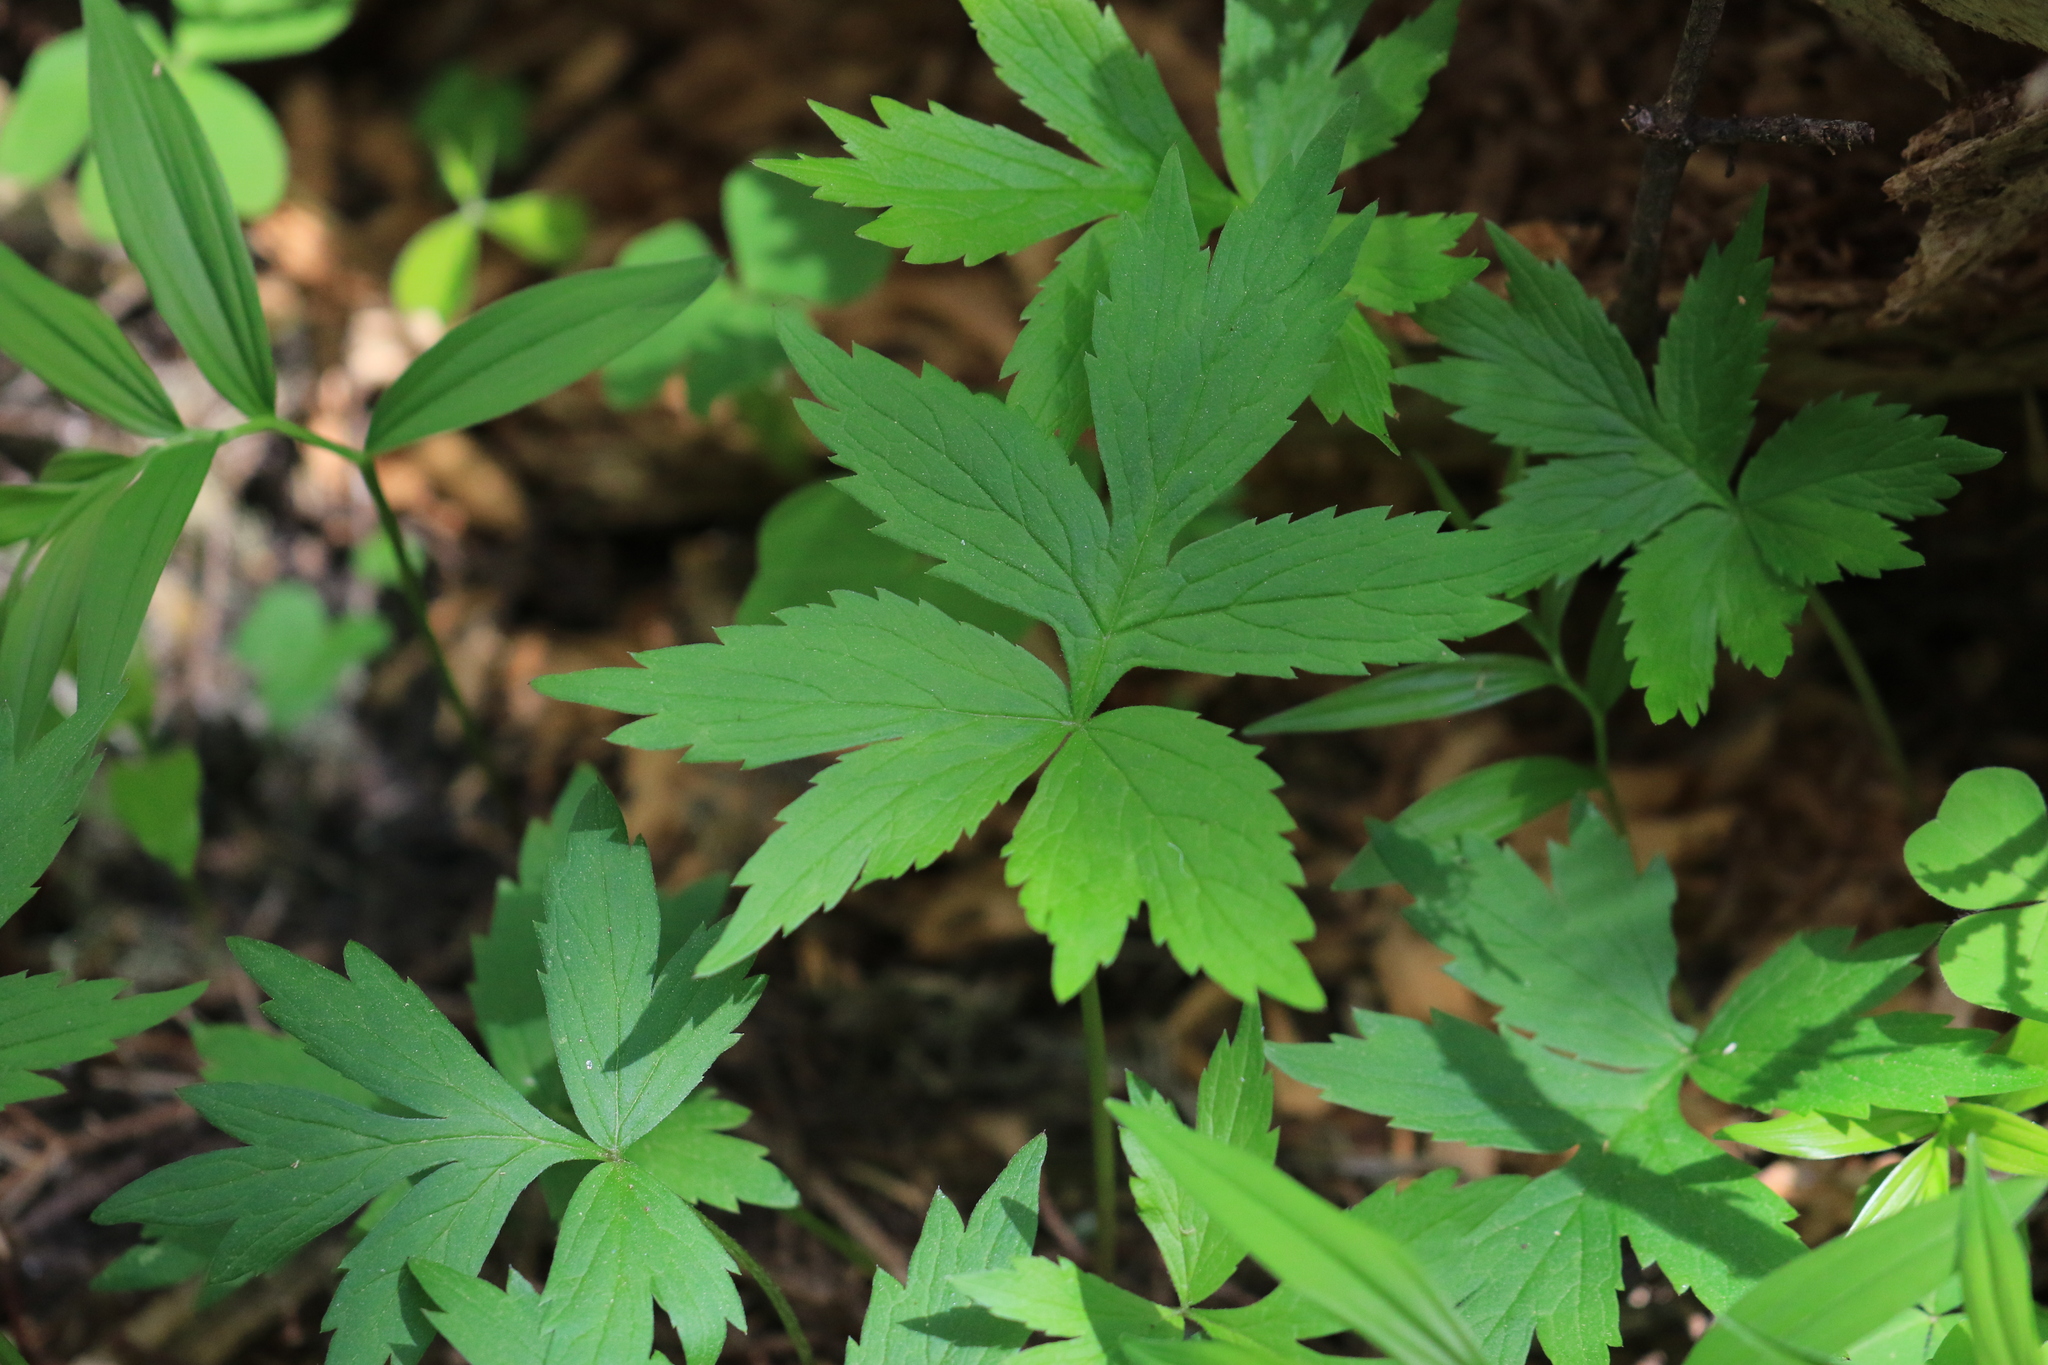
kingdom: Plantae
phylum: Tracheophyta
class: Magnoliopsida
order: Boraginales
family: Hydrophyllaceae
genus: Hydrophyllum
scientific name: Hydrophyllum tenuipes
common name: Pacific waterleaf
